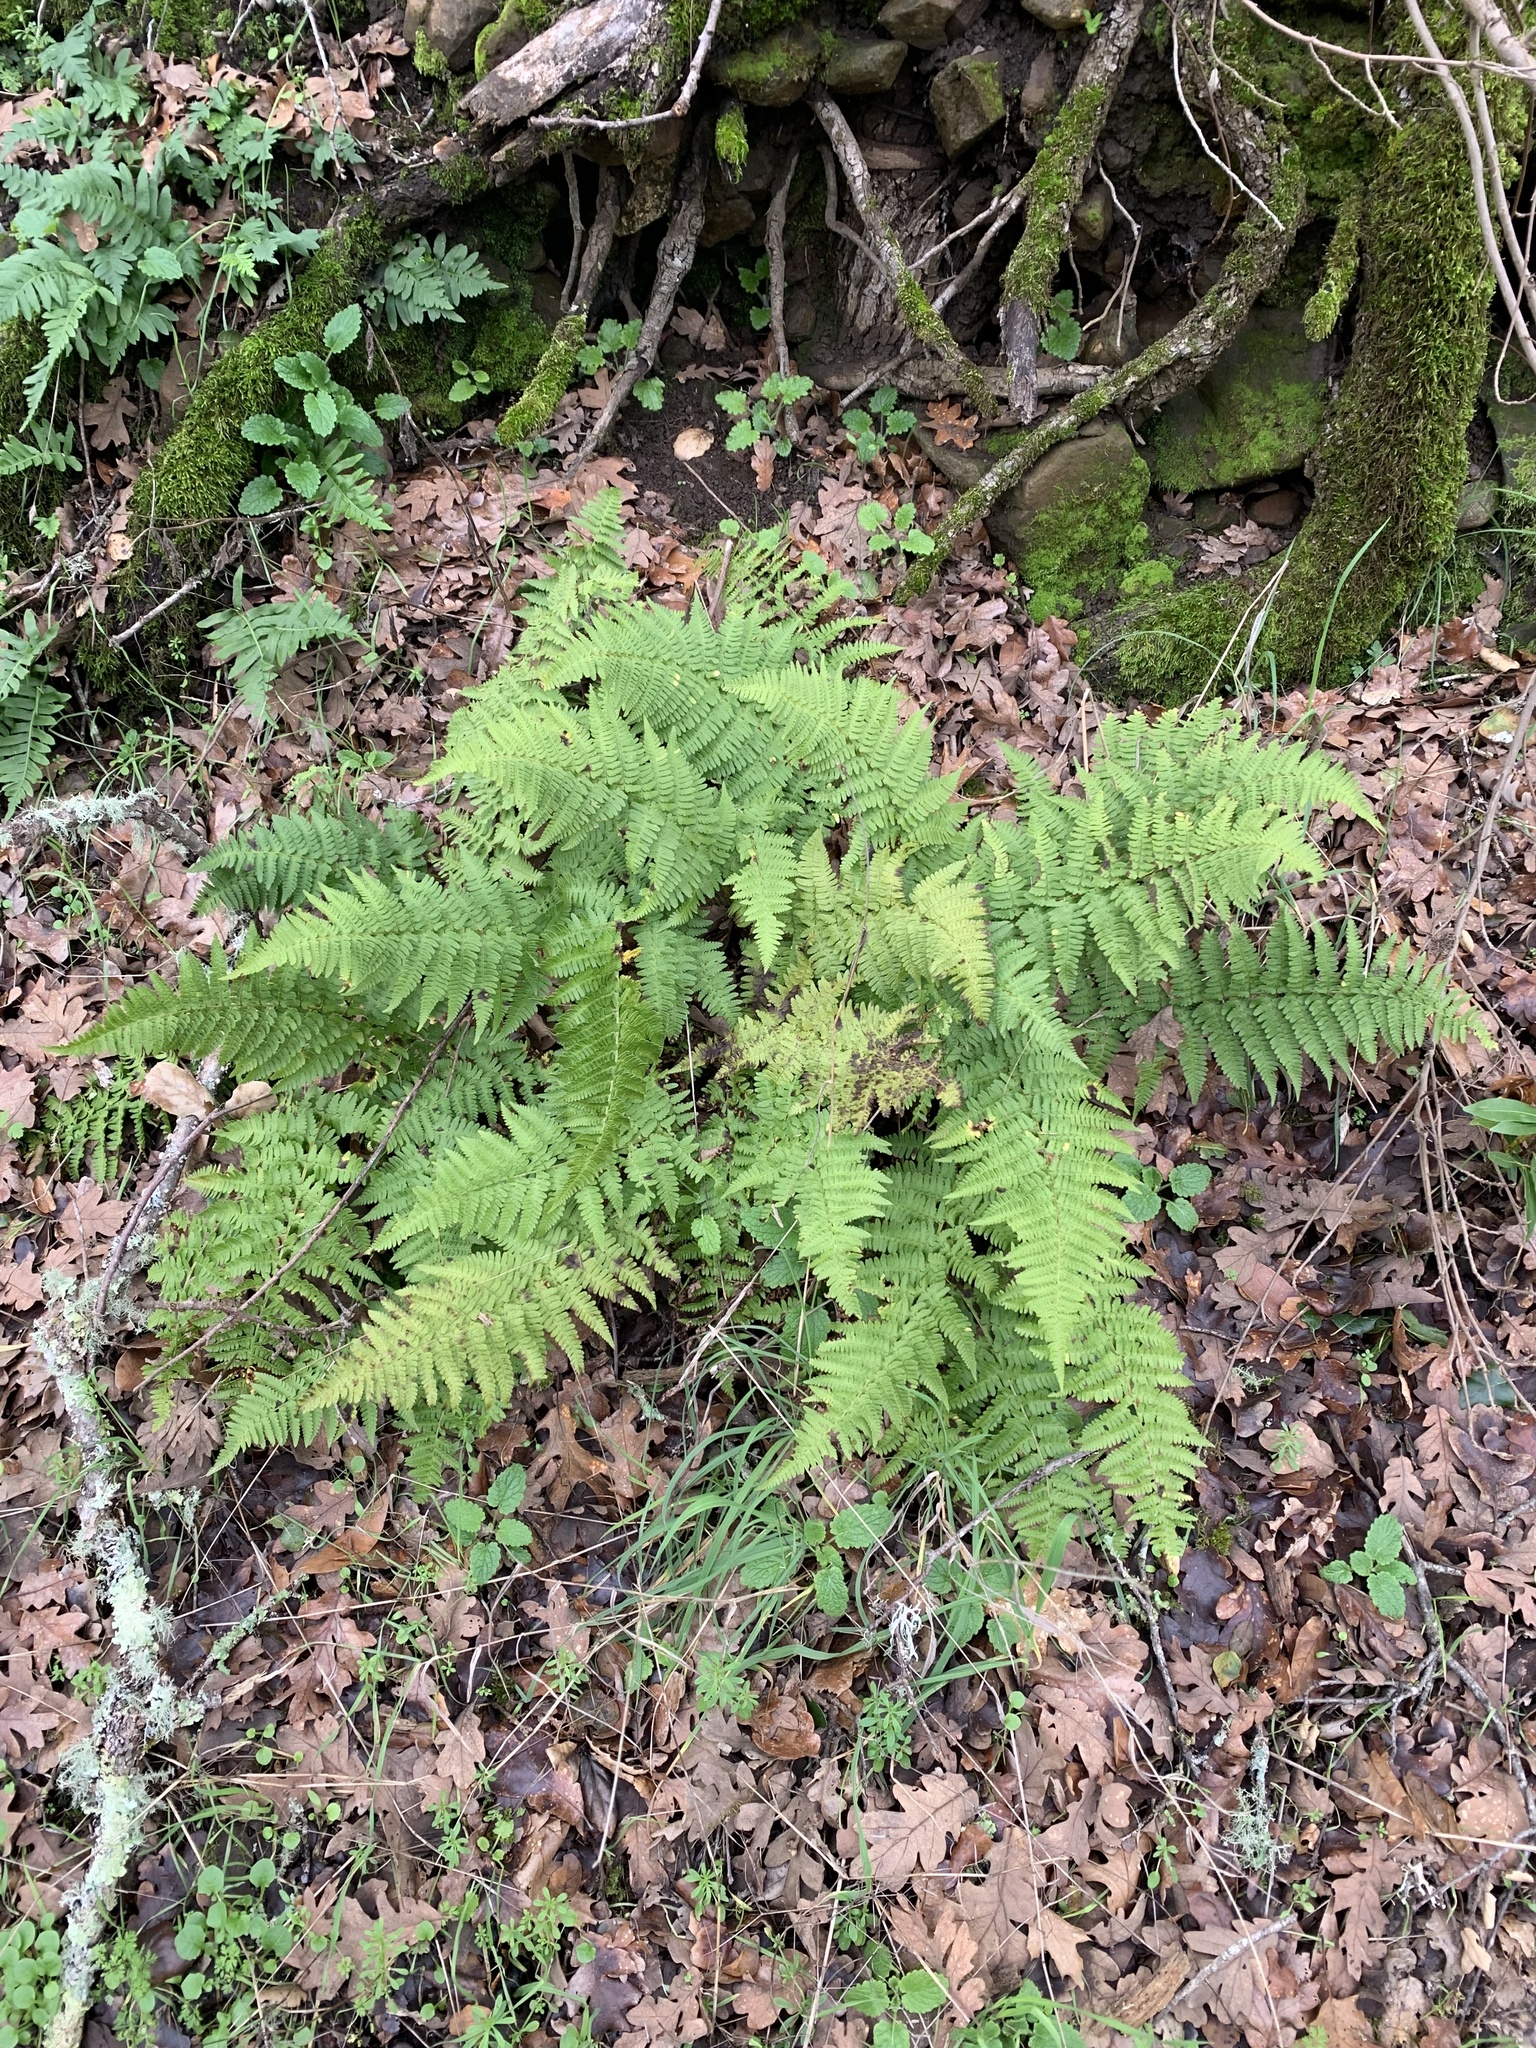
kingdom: Plantae
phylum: Tracheophyta
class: Polypodiopsida
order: Polypodiales
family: Dryopteridaceae
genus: Dryopteris
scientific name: Dryopteris arguta
